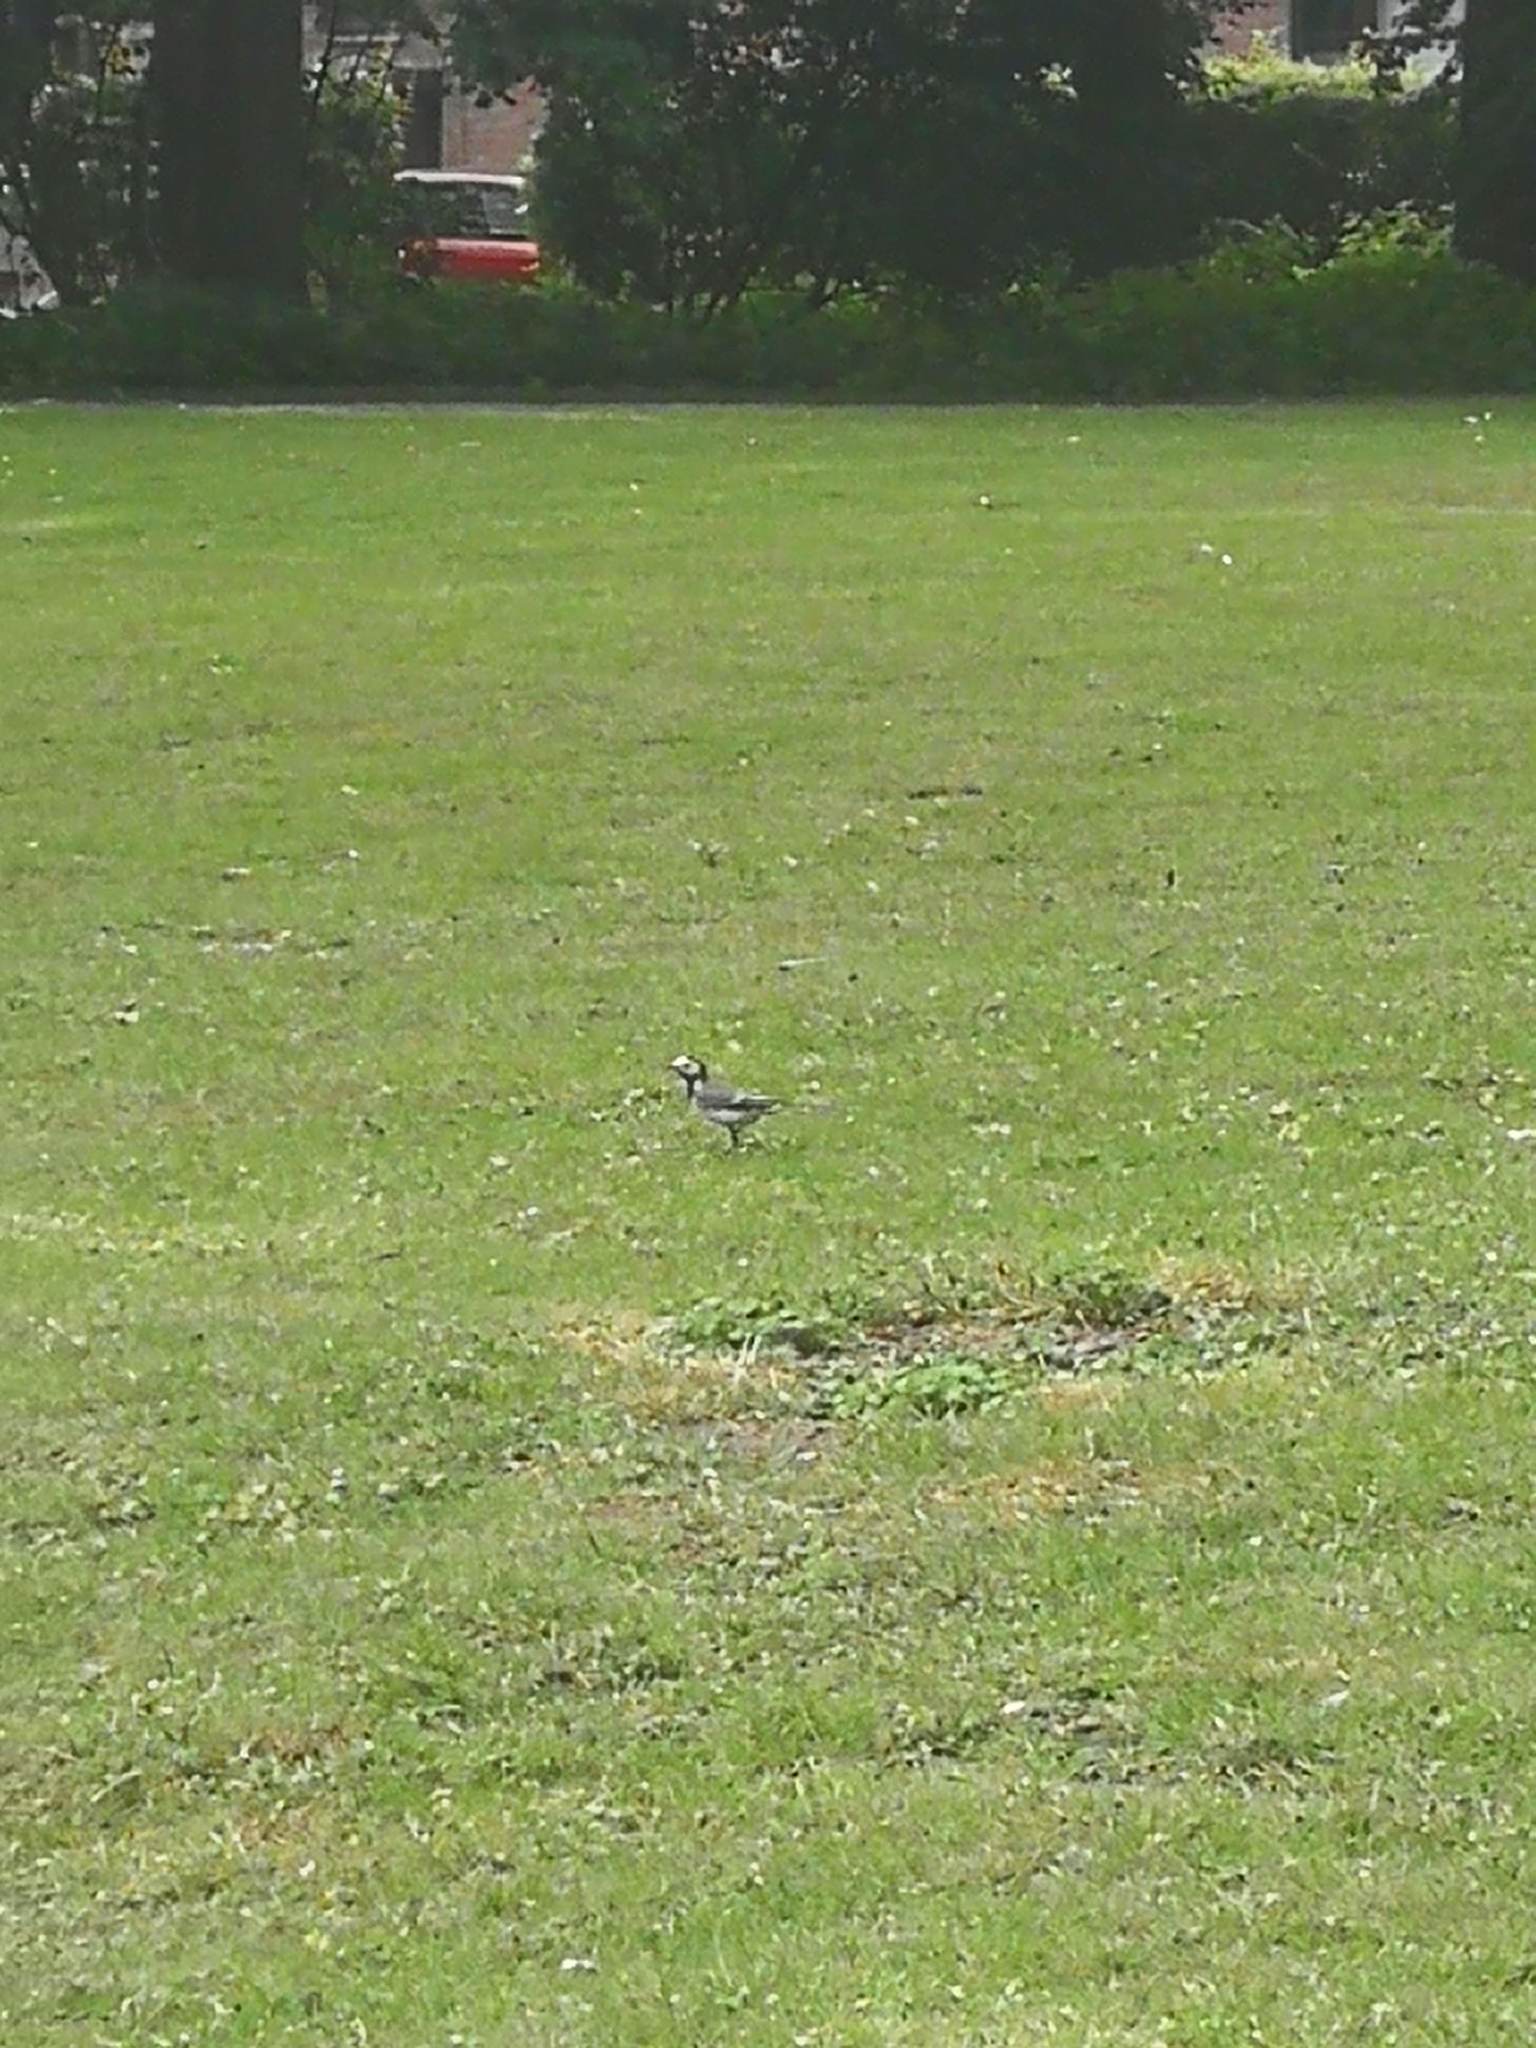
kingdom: Animalia
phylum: Chordata
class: Aves
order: Passeriformes
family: Motacillidae
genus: Motacilla
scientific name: Motacilla alba
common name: White wagtail
